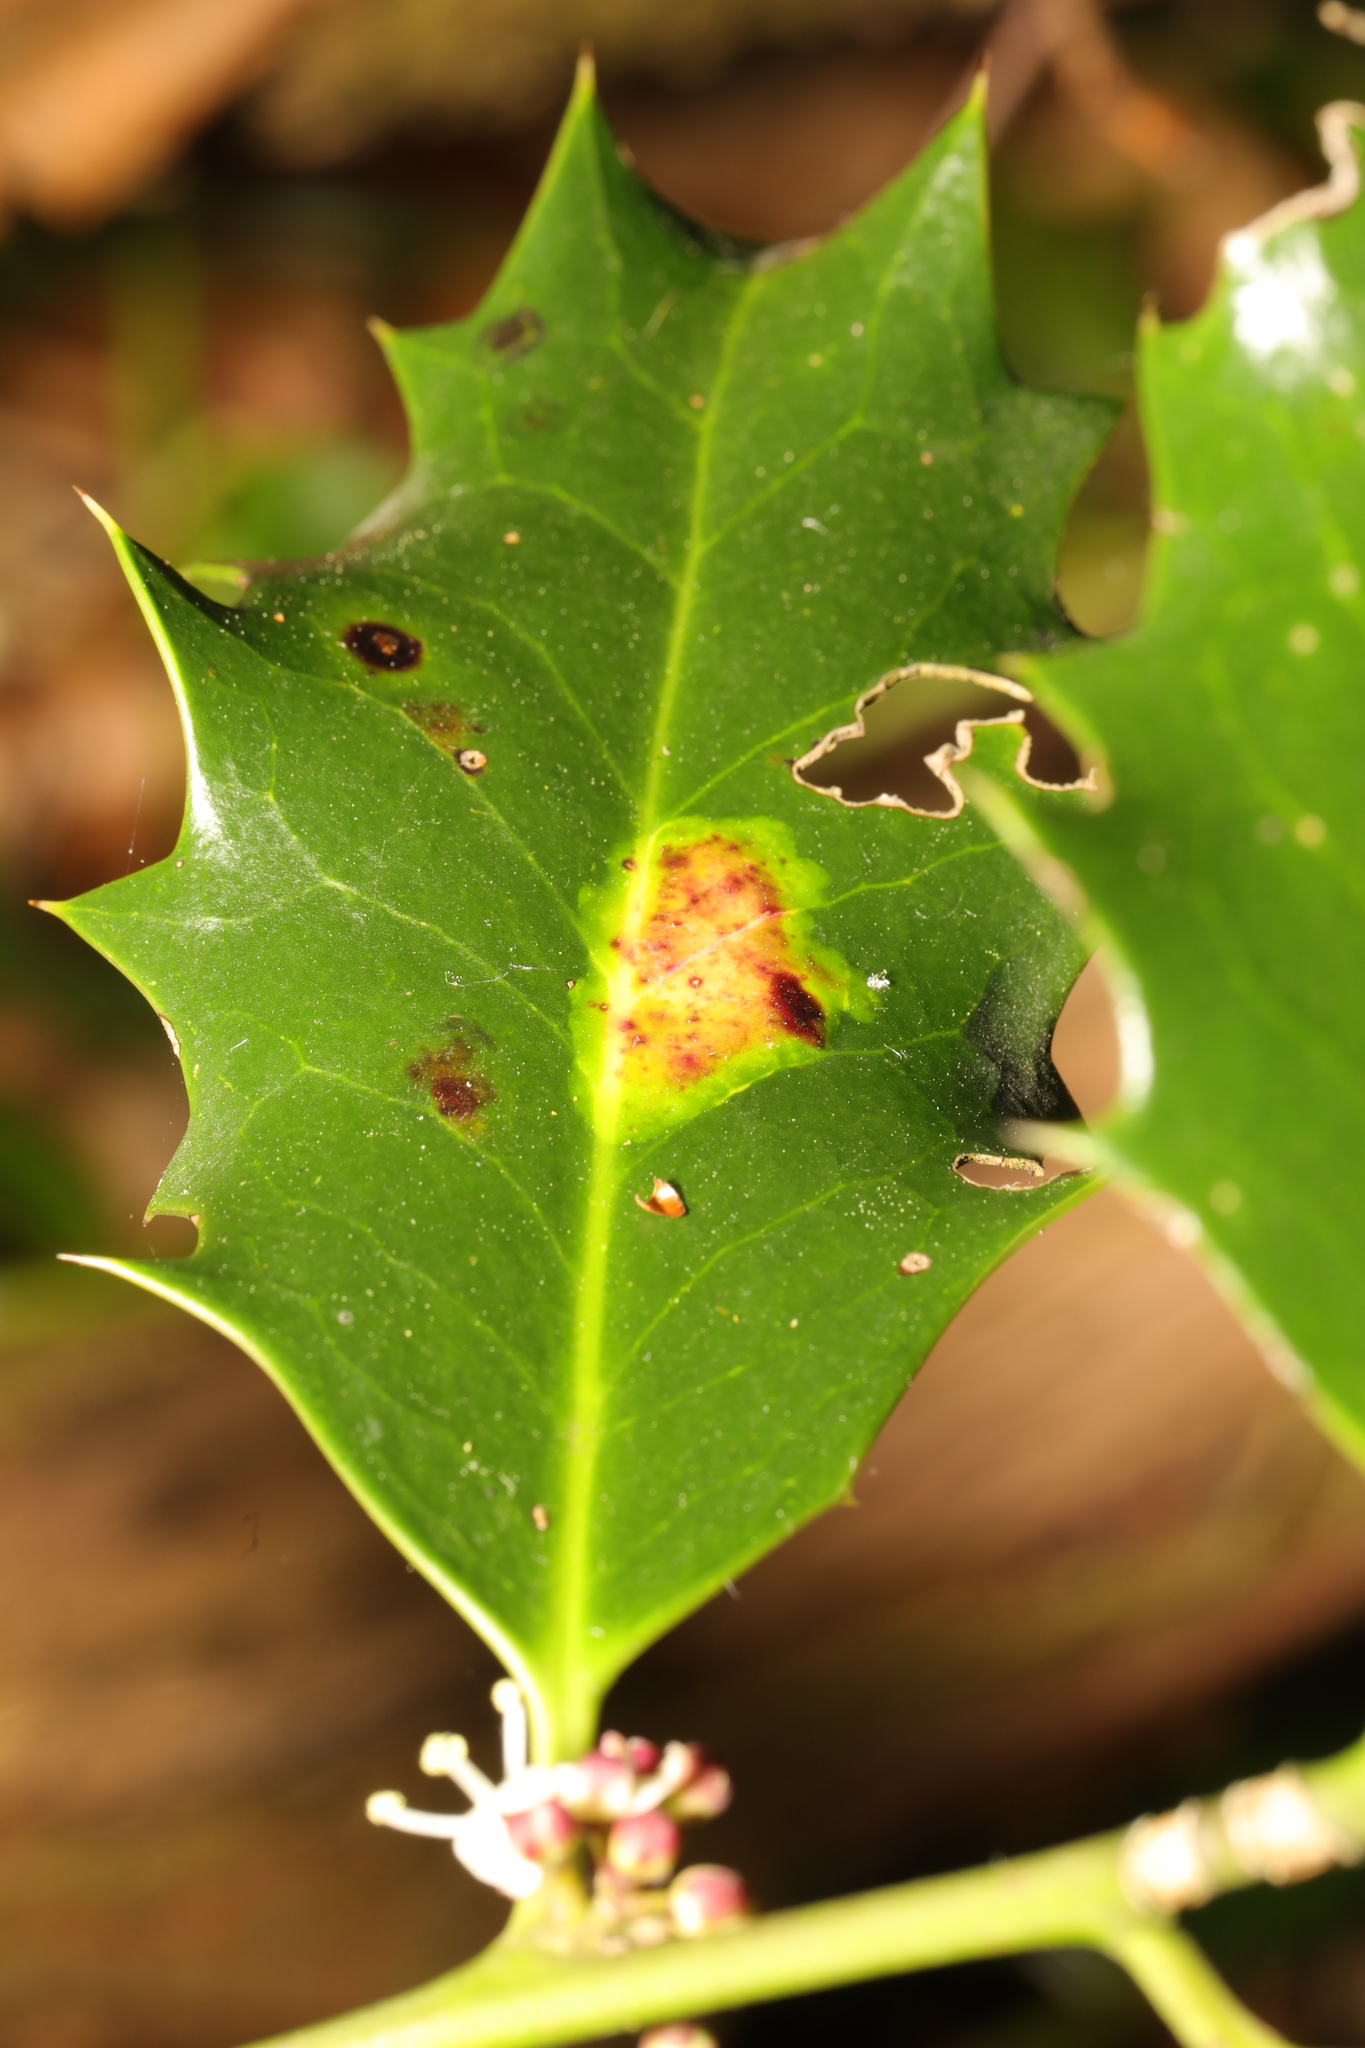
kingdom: Animalia
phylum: Arthropoda
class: Insecta
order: Diptera
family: Agromyzidae
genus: Phytomyza
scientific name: Phytomyza ilicis
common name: Holly leafminer
